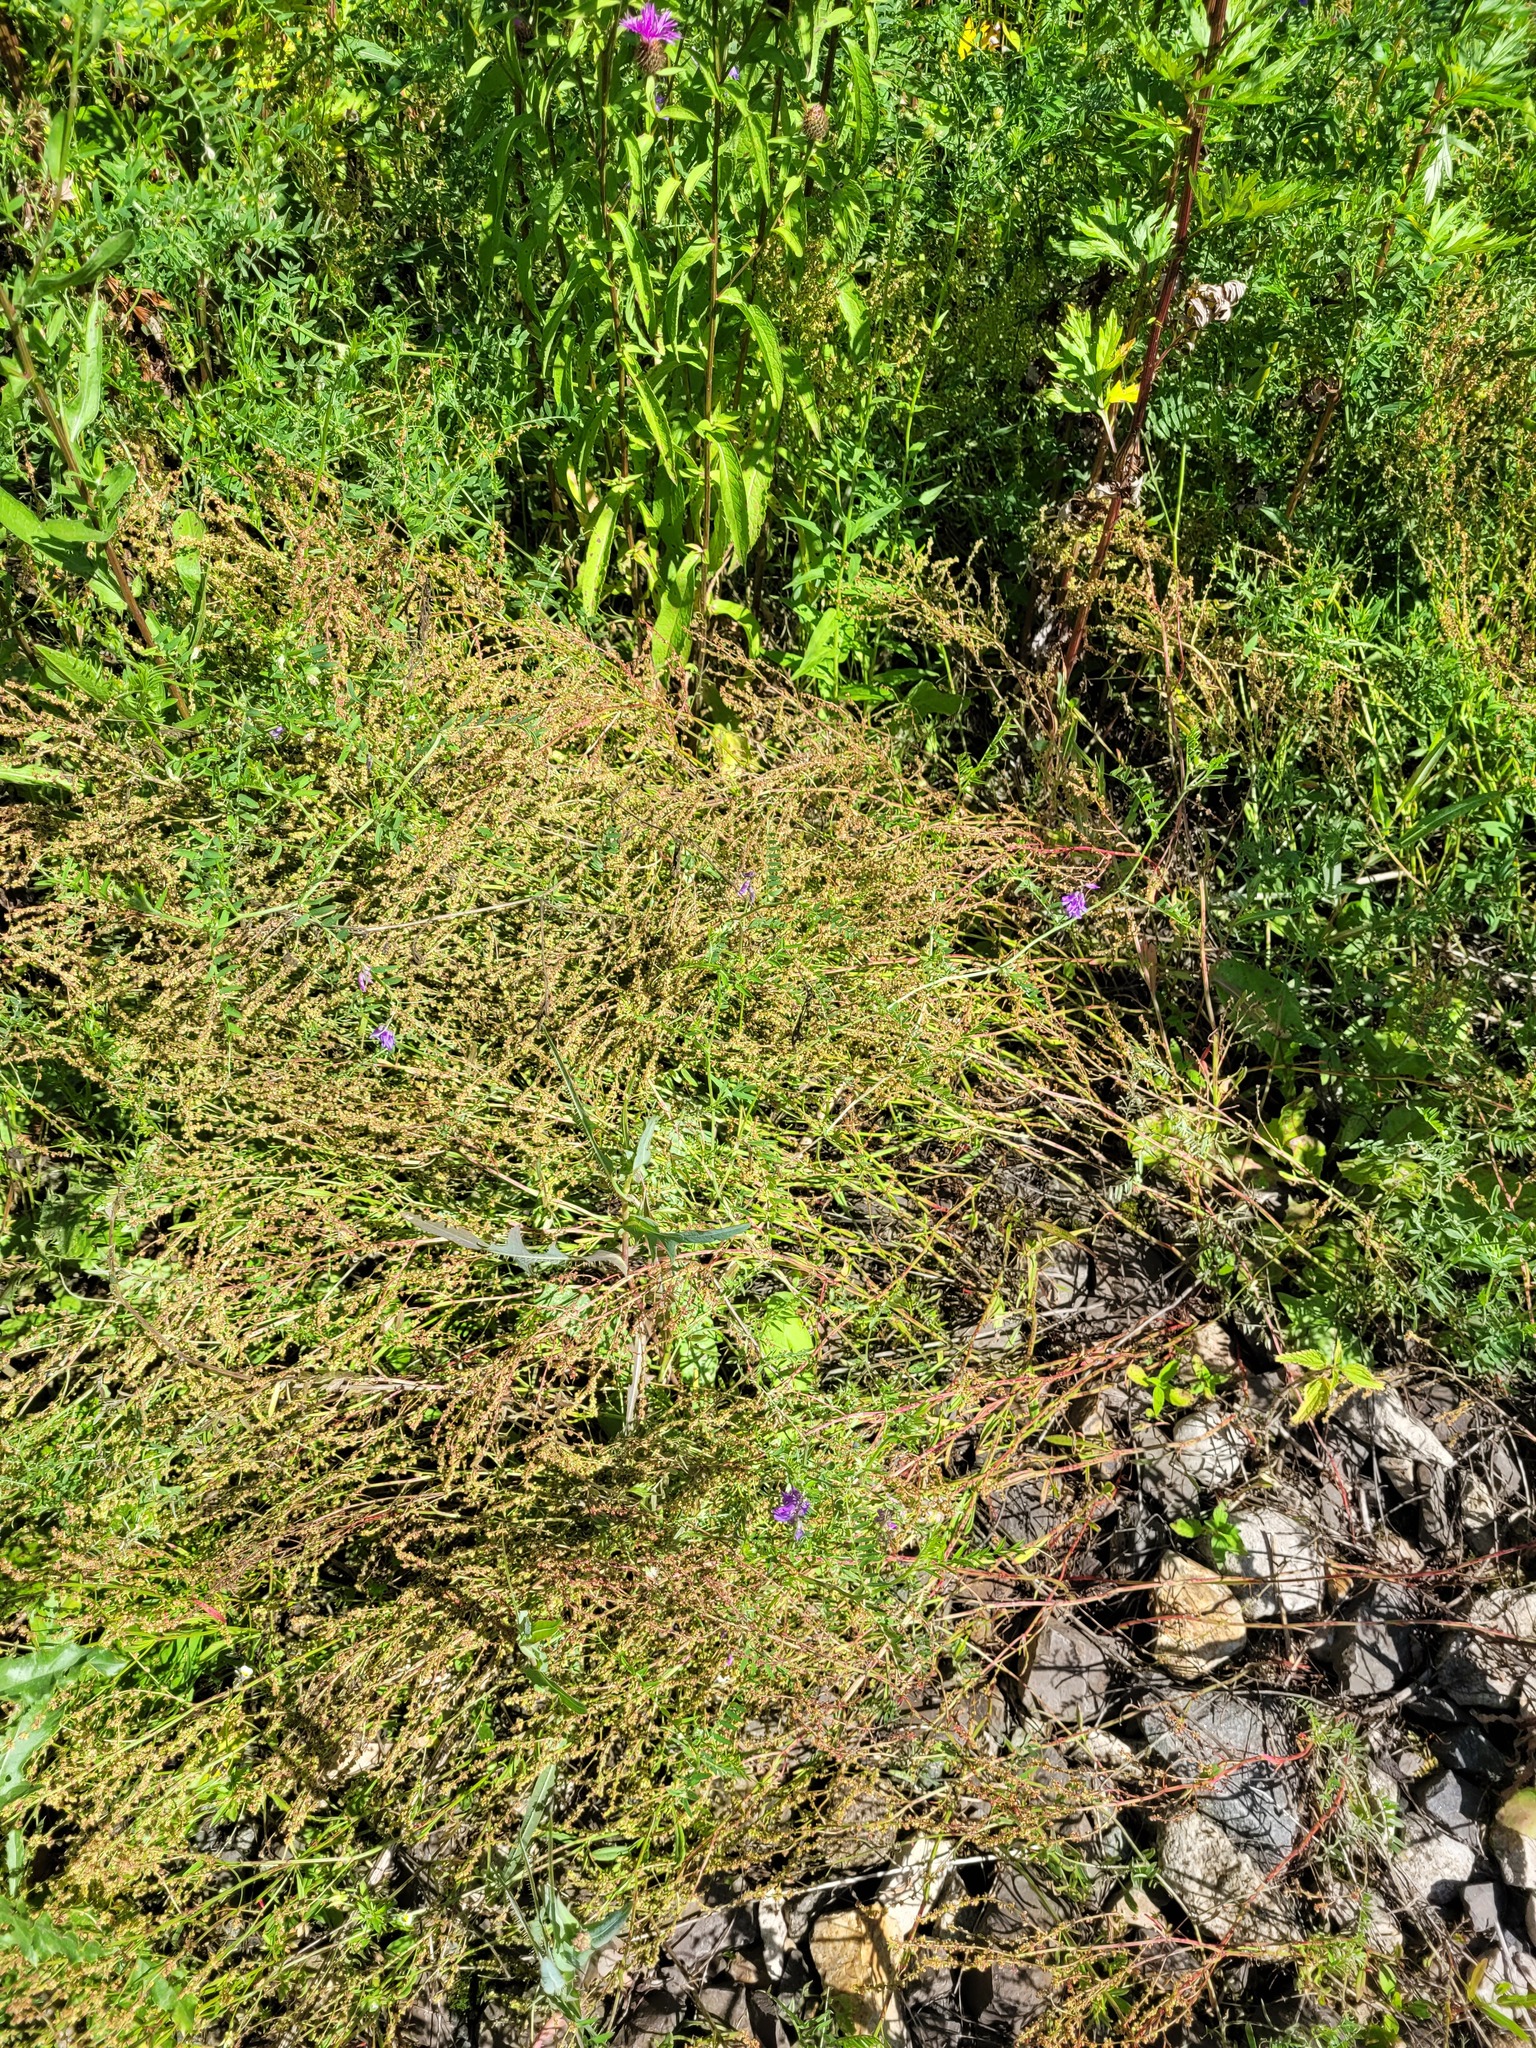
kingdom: Plantae
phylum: Tracheophyta
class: Magnoliopsida
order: Caryophyllales
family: Polygonaceae
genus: Rumex
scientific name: Rumex acetosella
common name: Common sheep sorrel
